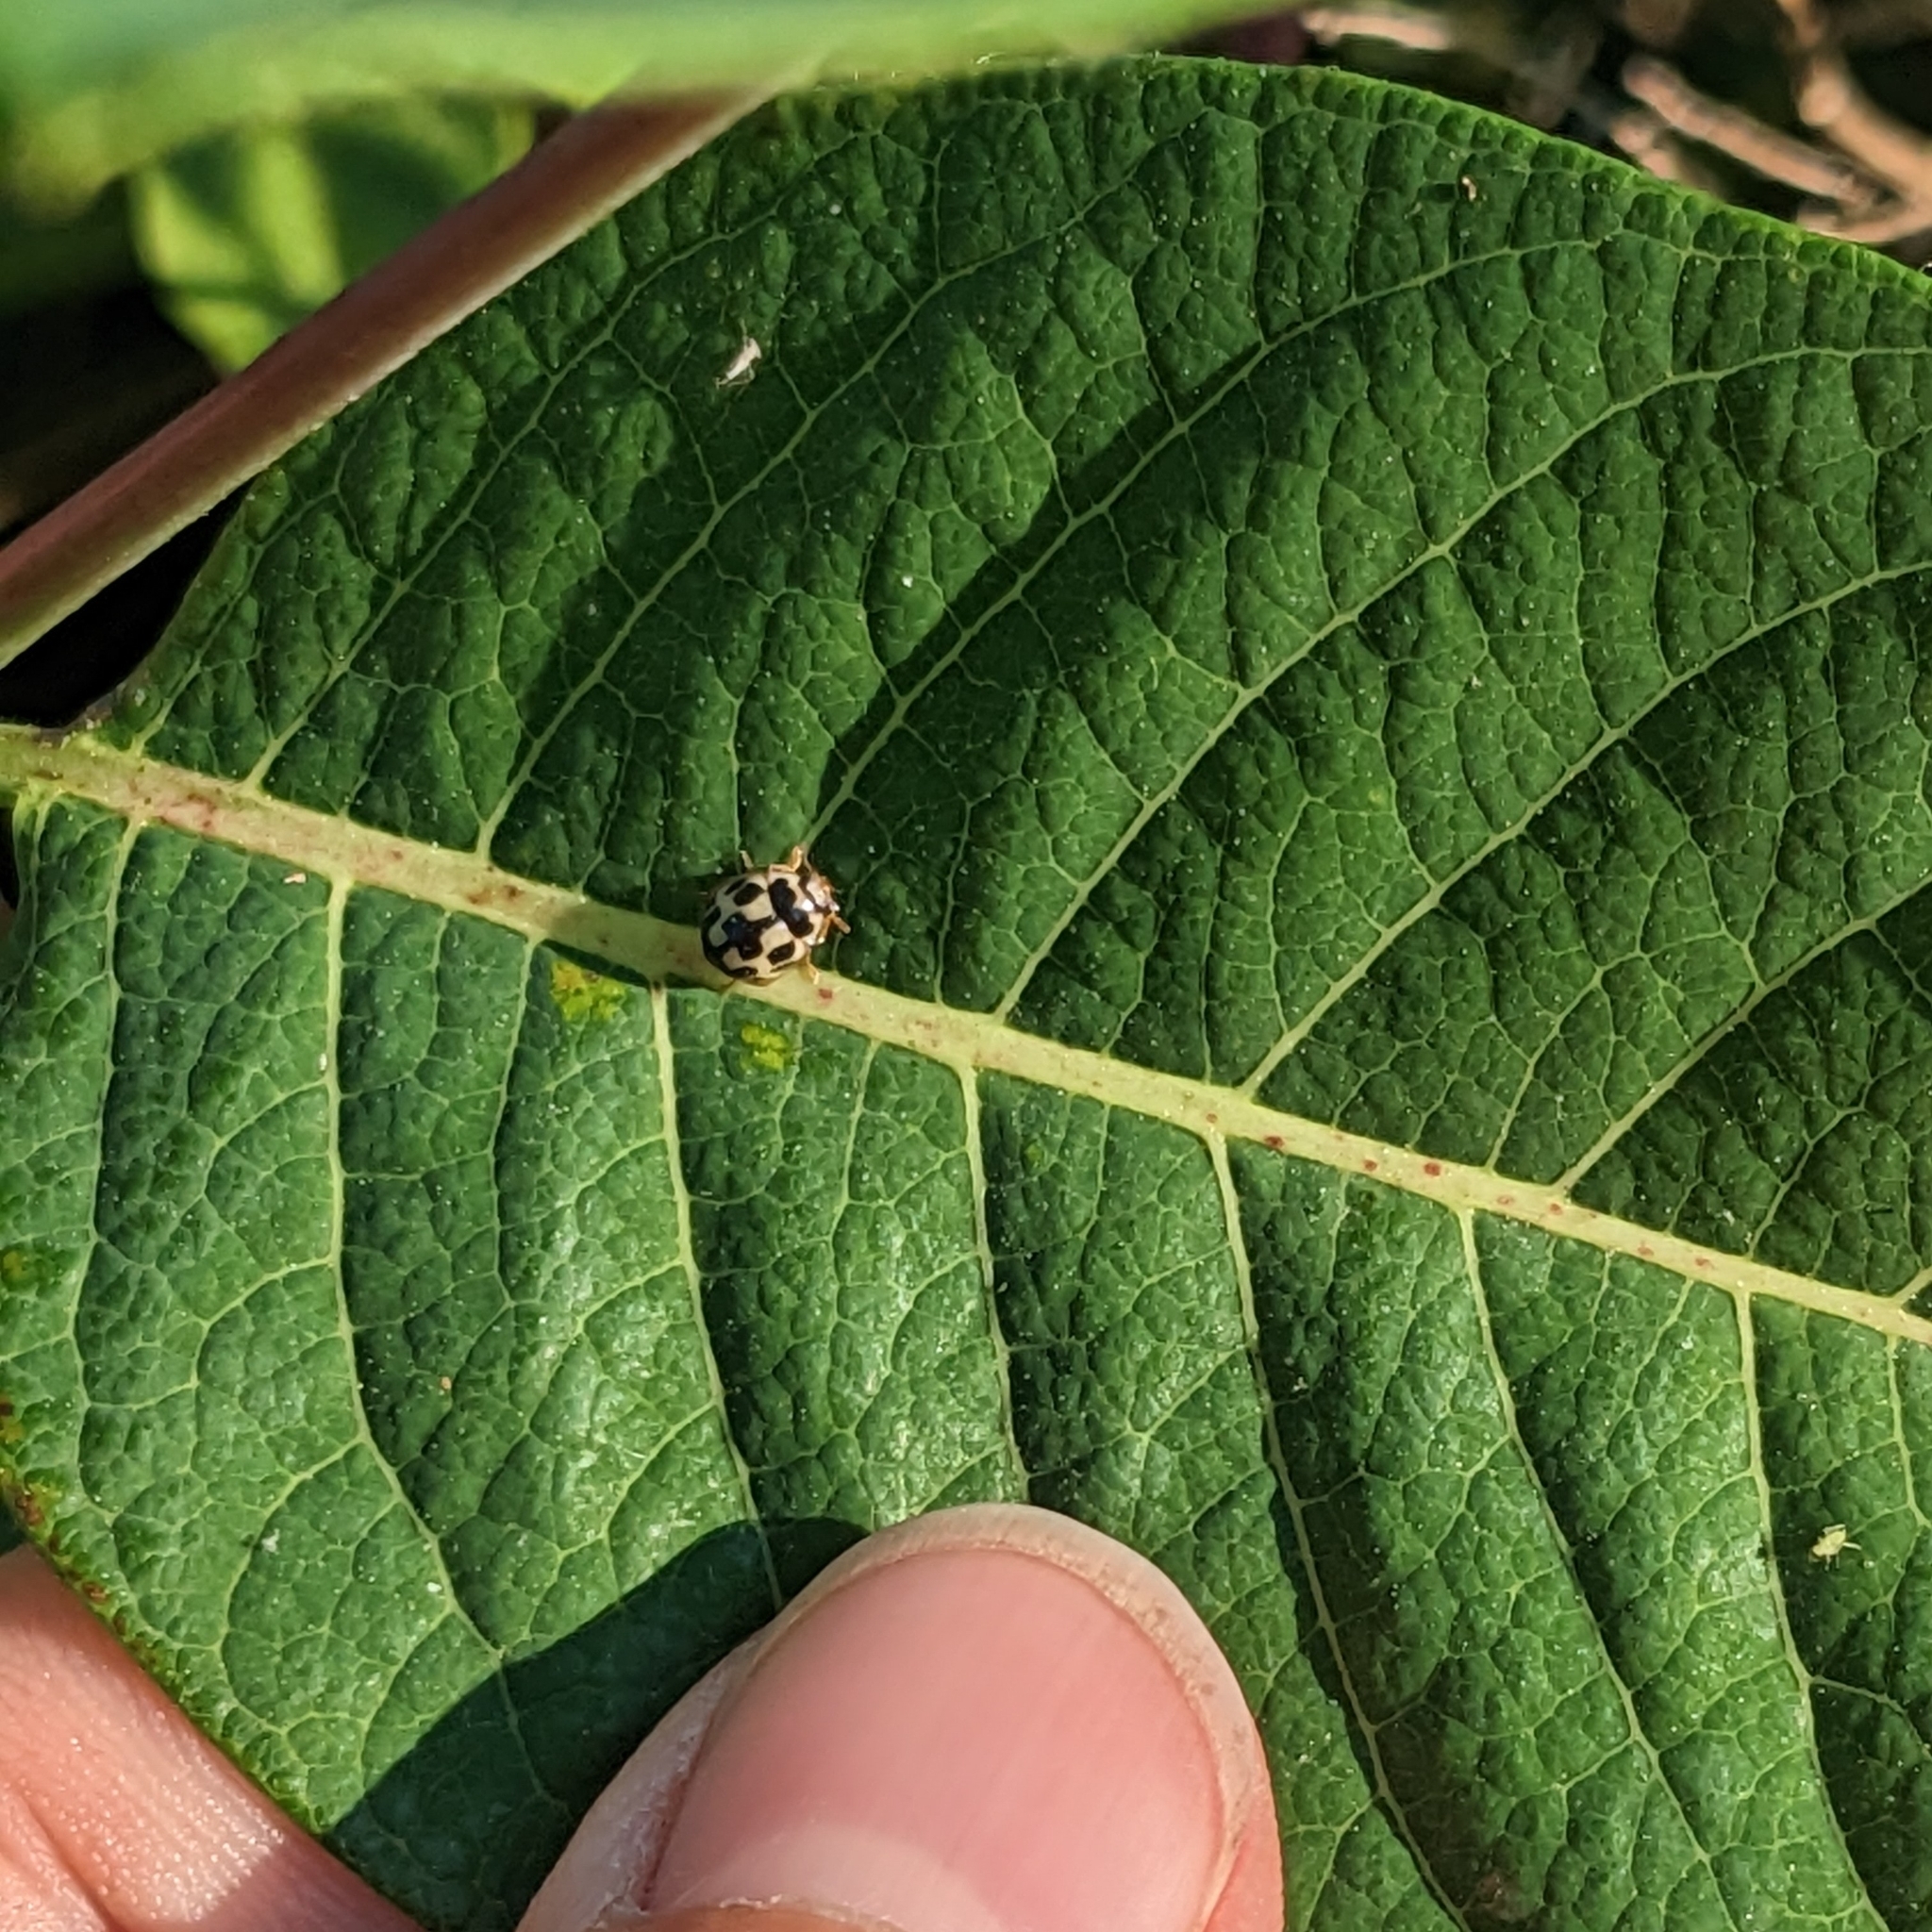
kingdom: Animalia
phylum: Arthropoda
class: Insecta
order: Coleoptera
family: Coccinellidae
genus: Propylaea
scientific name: Propylaea quatuordecimpunctata
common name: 14-spotted ladybird beetle
